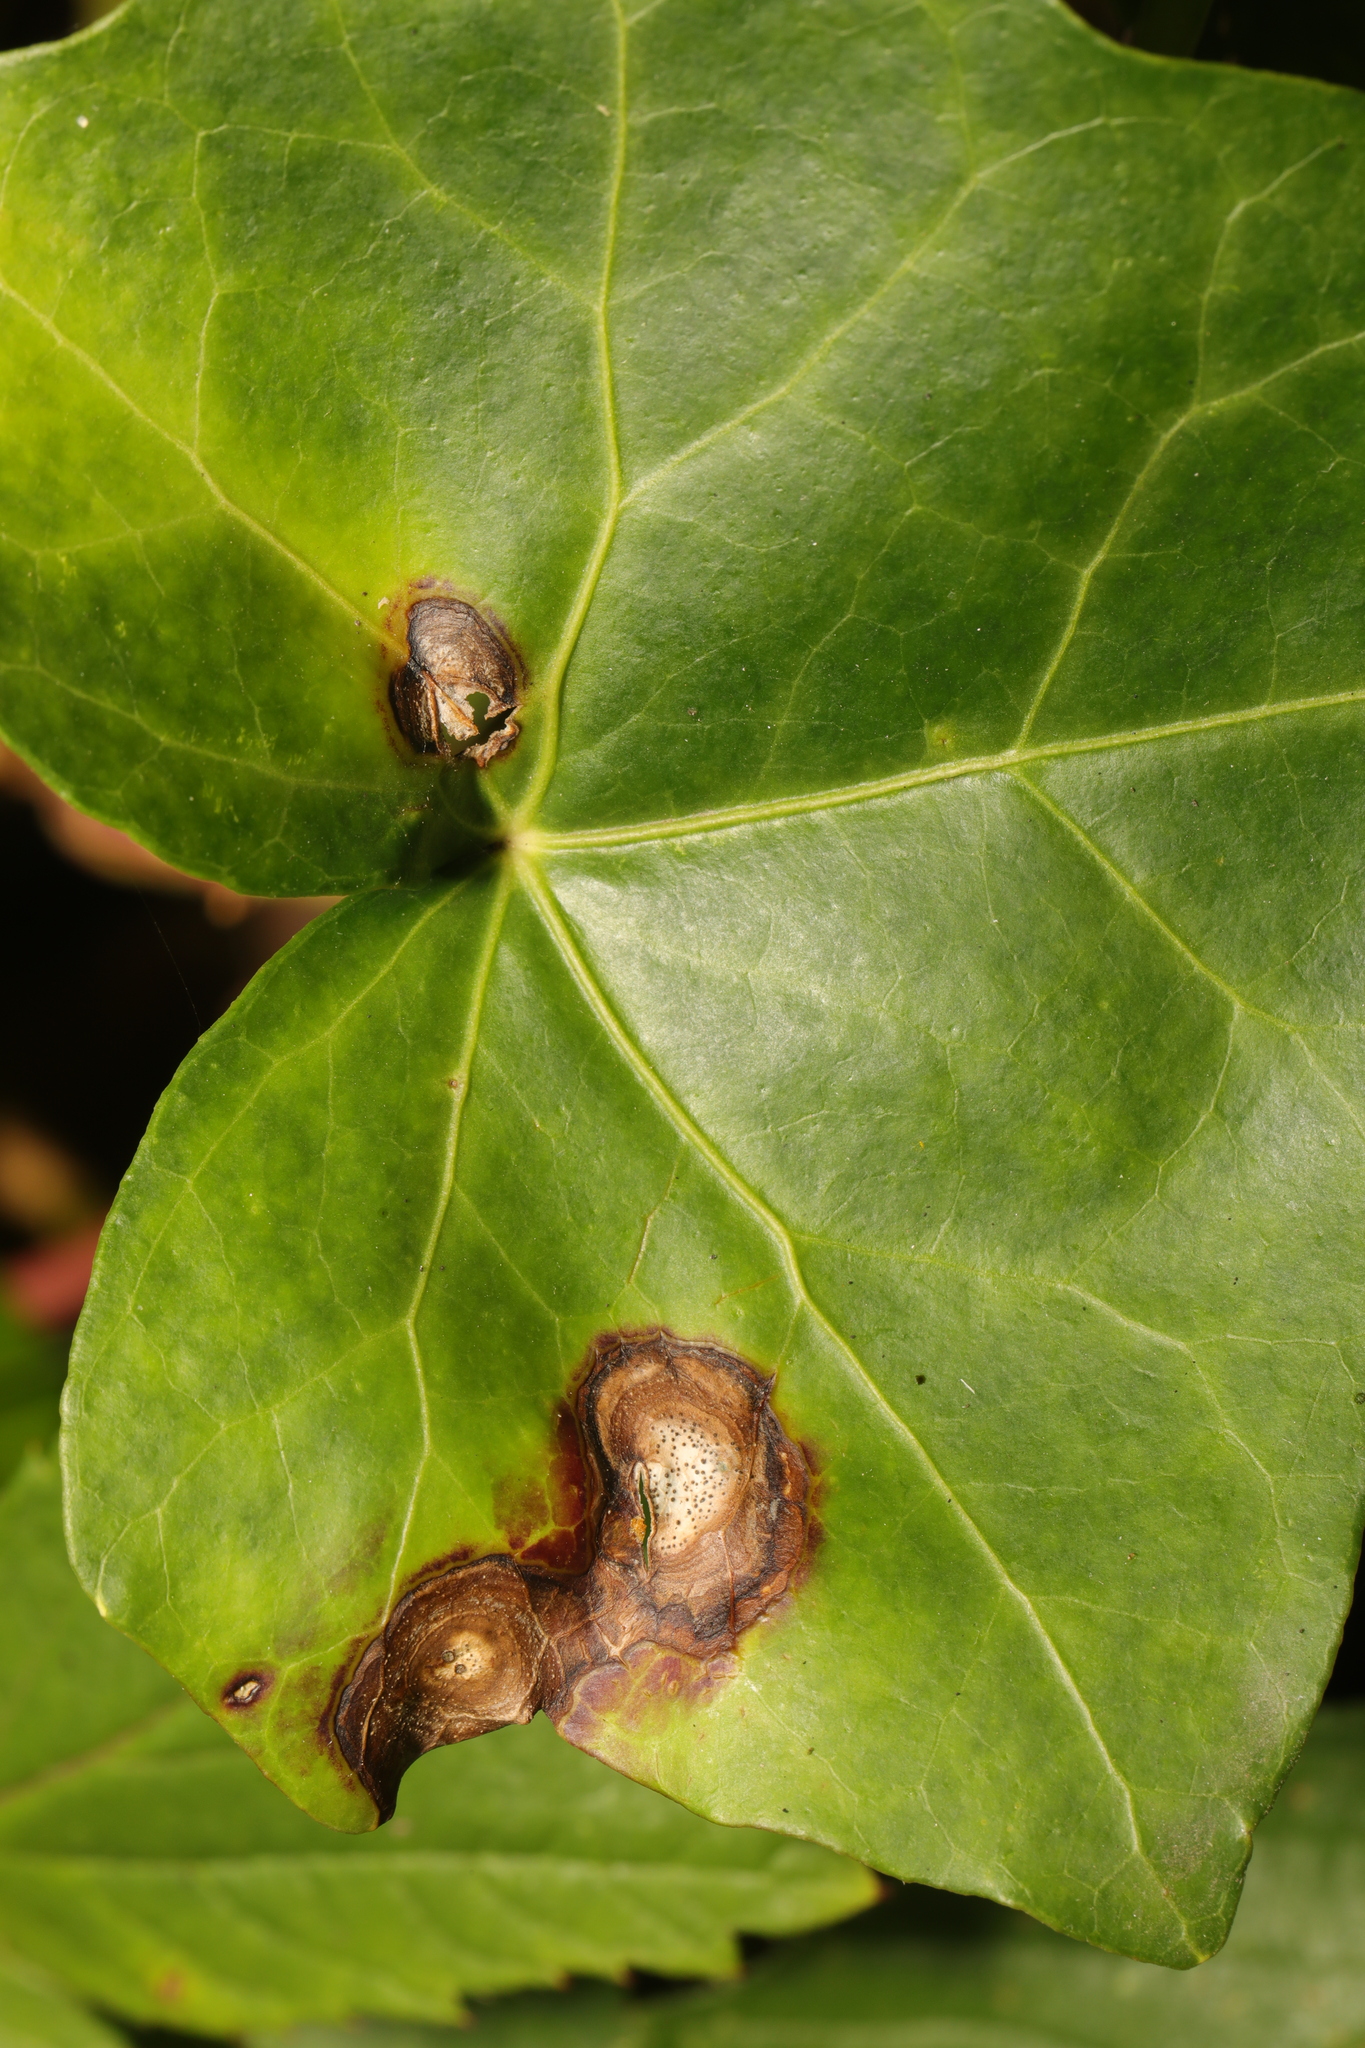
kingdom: Fungi
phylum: Ascomycota
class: Dothideomycetes
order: Pleosporales
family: Didymellaceae
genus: Boeremia
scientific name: Boeremia hedericola
